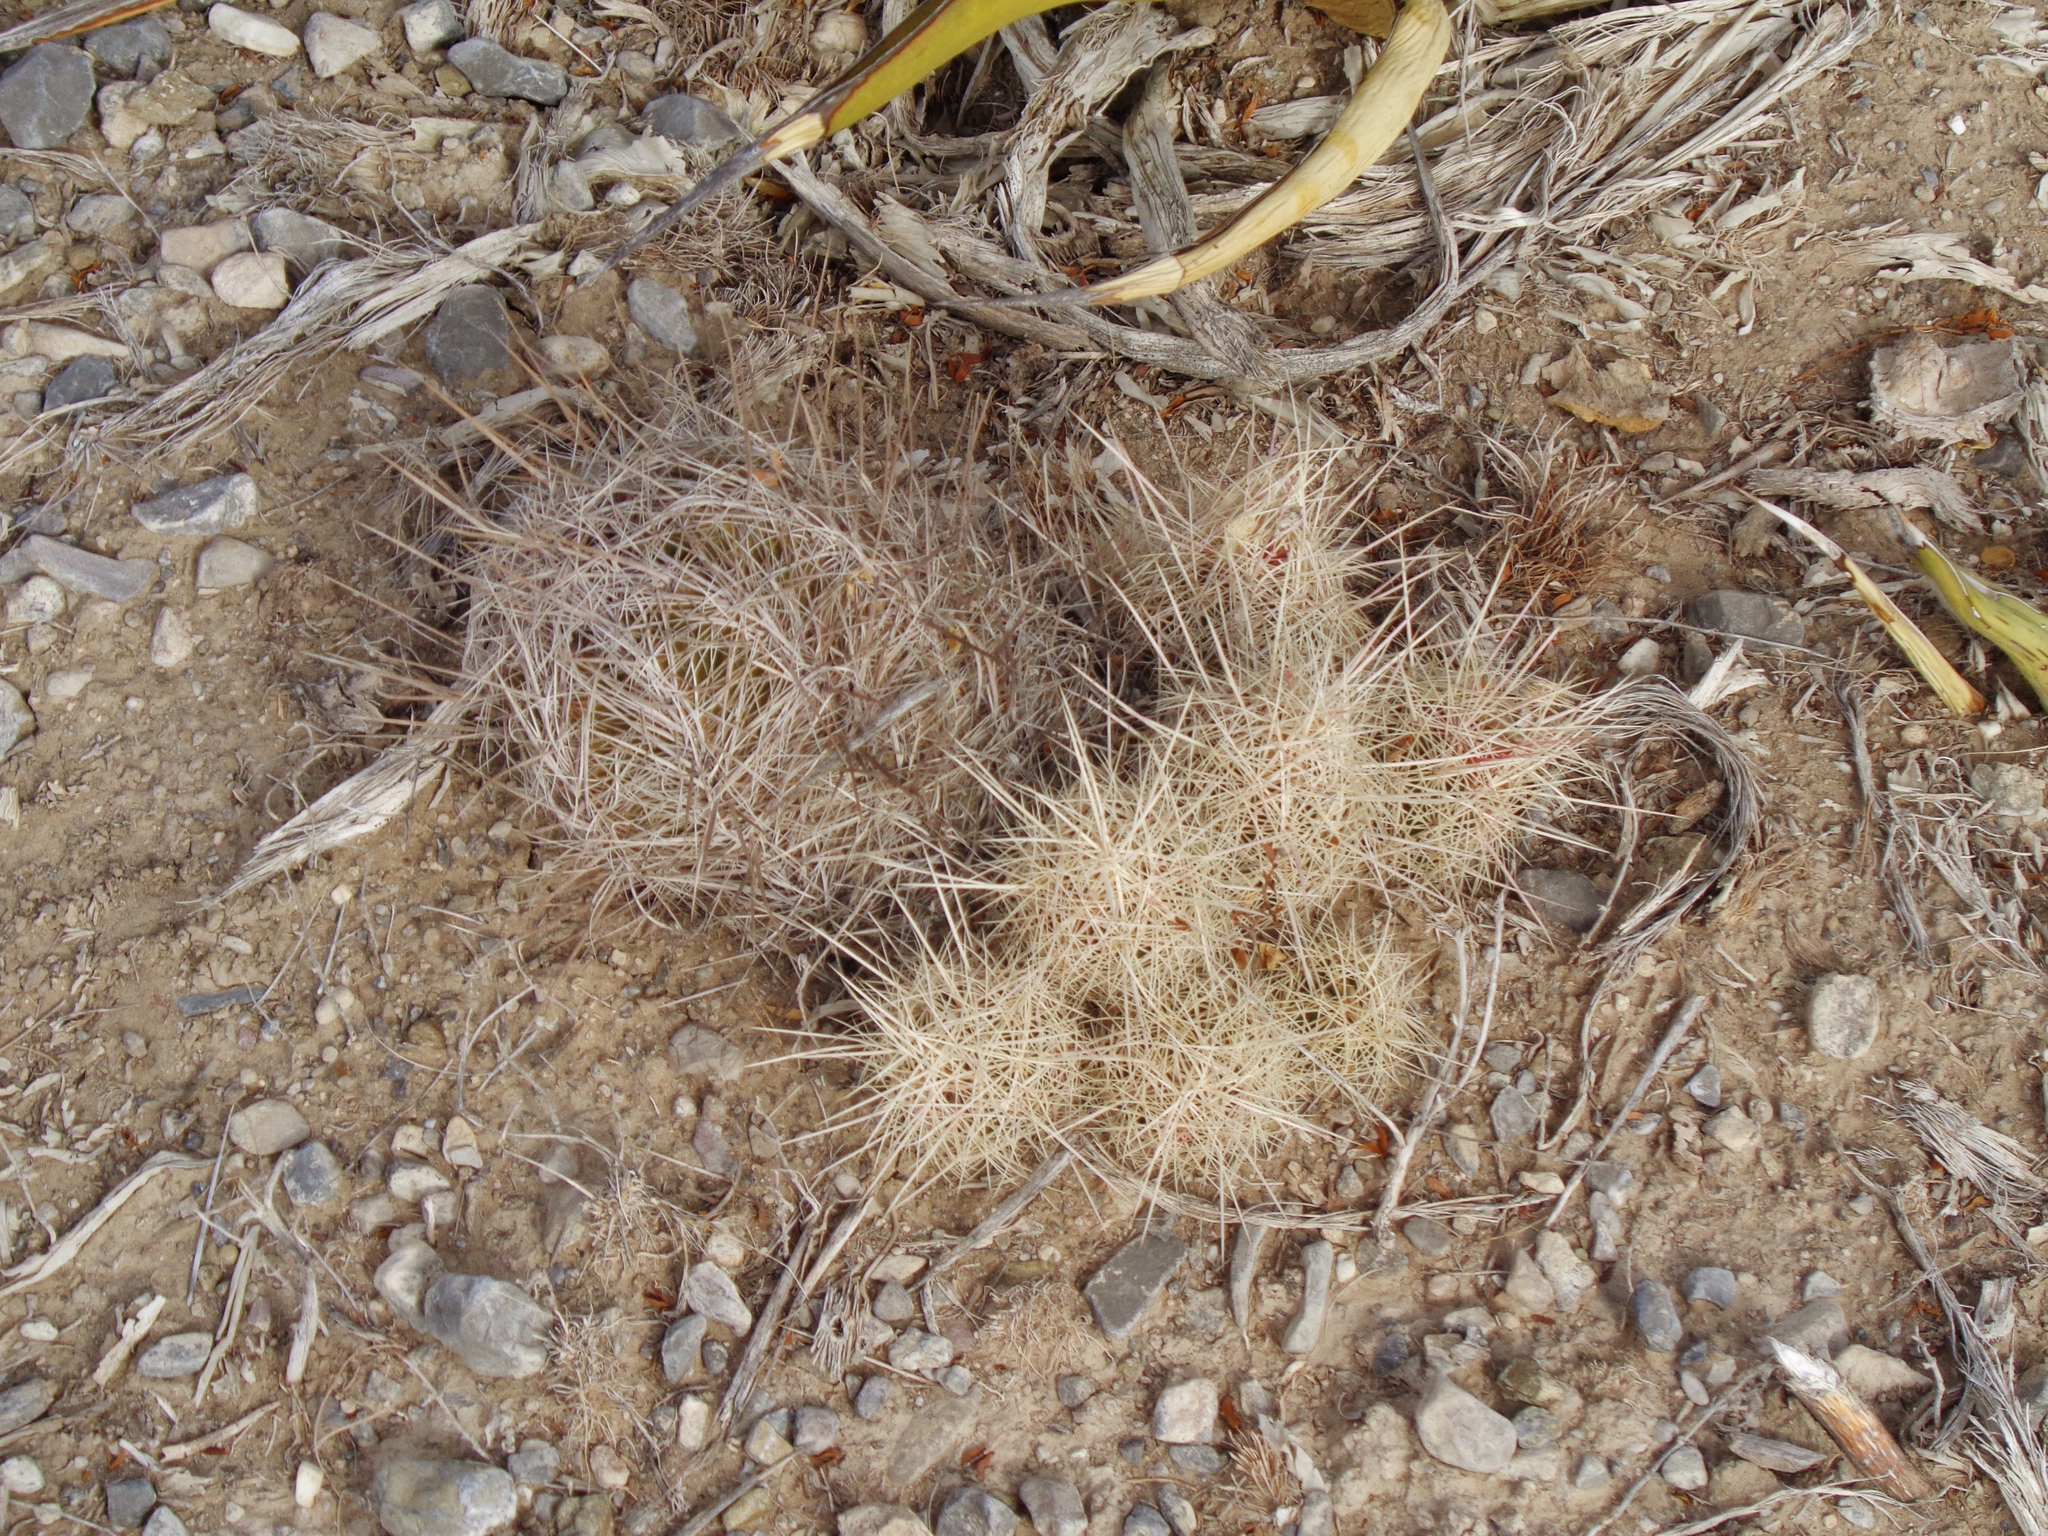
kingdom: Plantae
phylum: Tracheophyta
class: Magnoliopsida
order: Caryophyllales
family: Cactaceae
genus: Thelocactus
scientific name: Thelocactus bicolor
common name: Glory of texas
